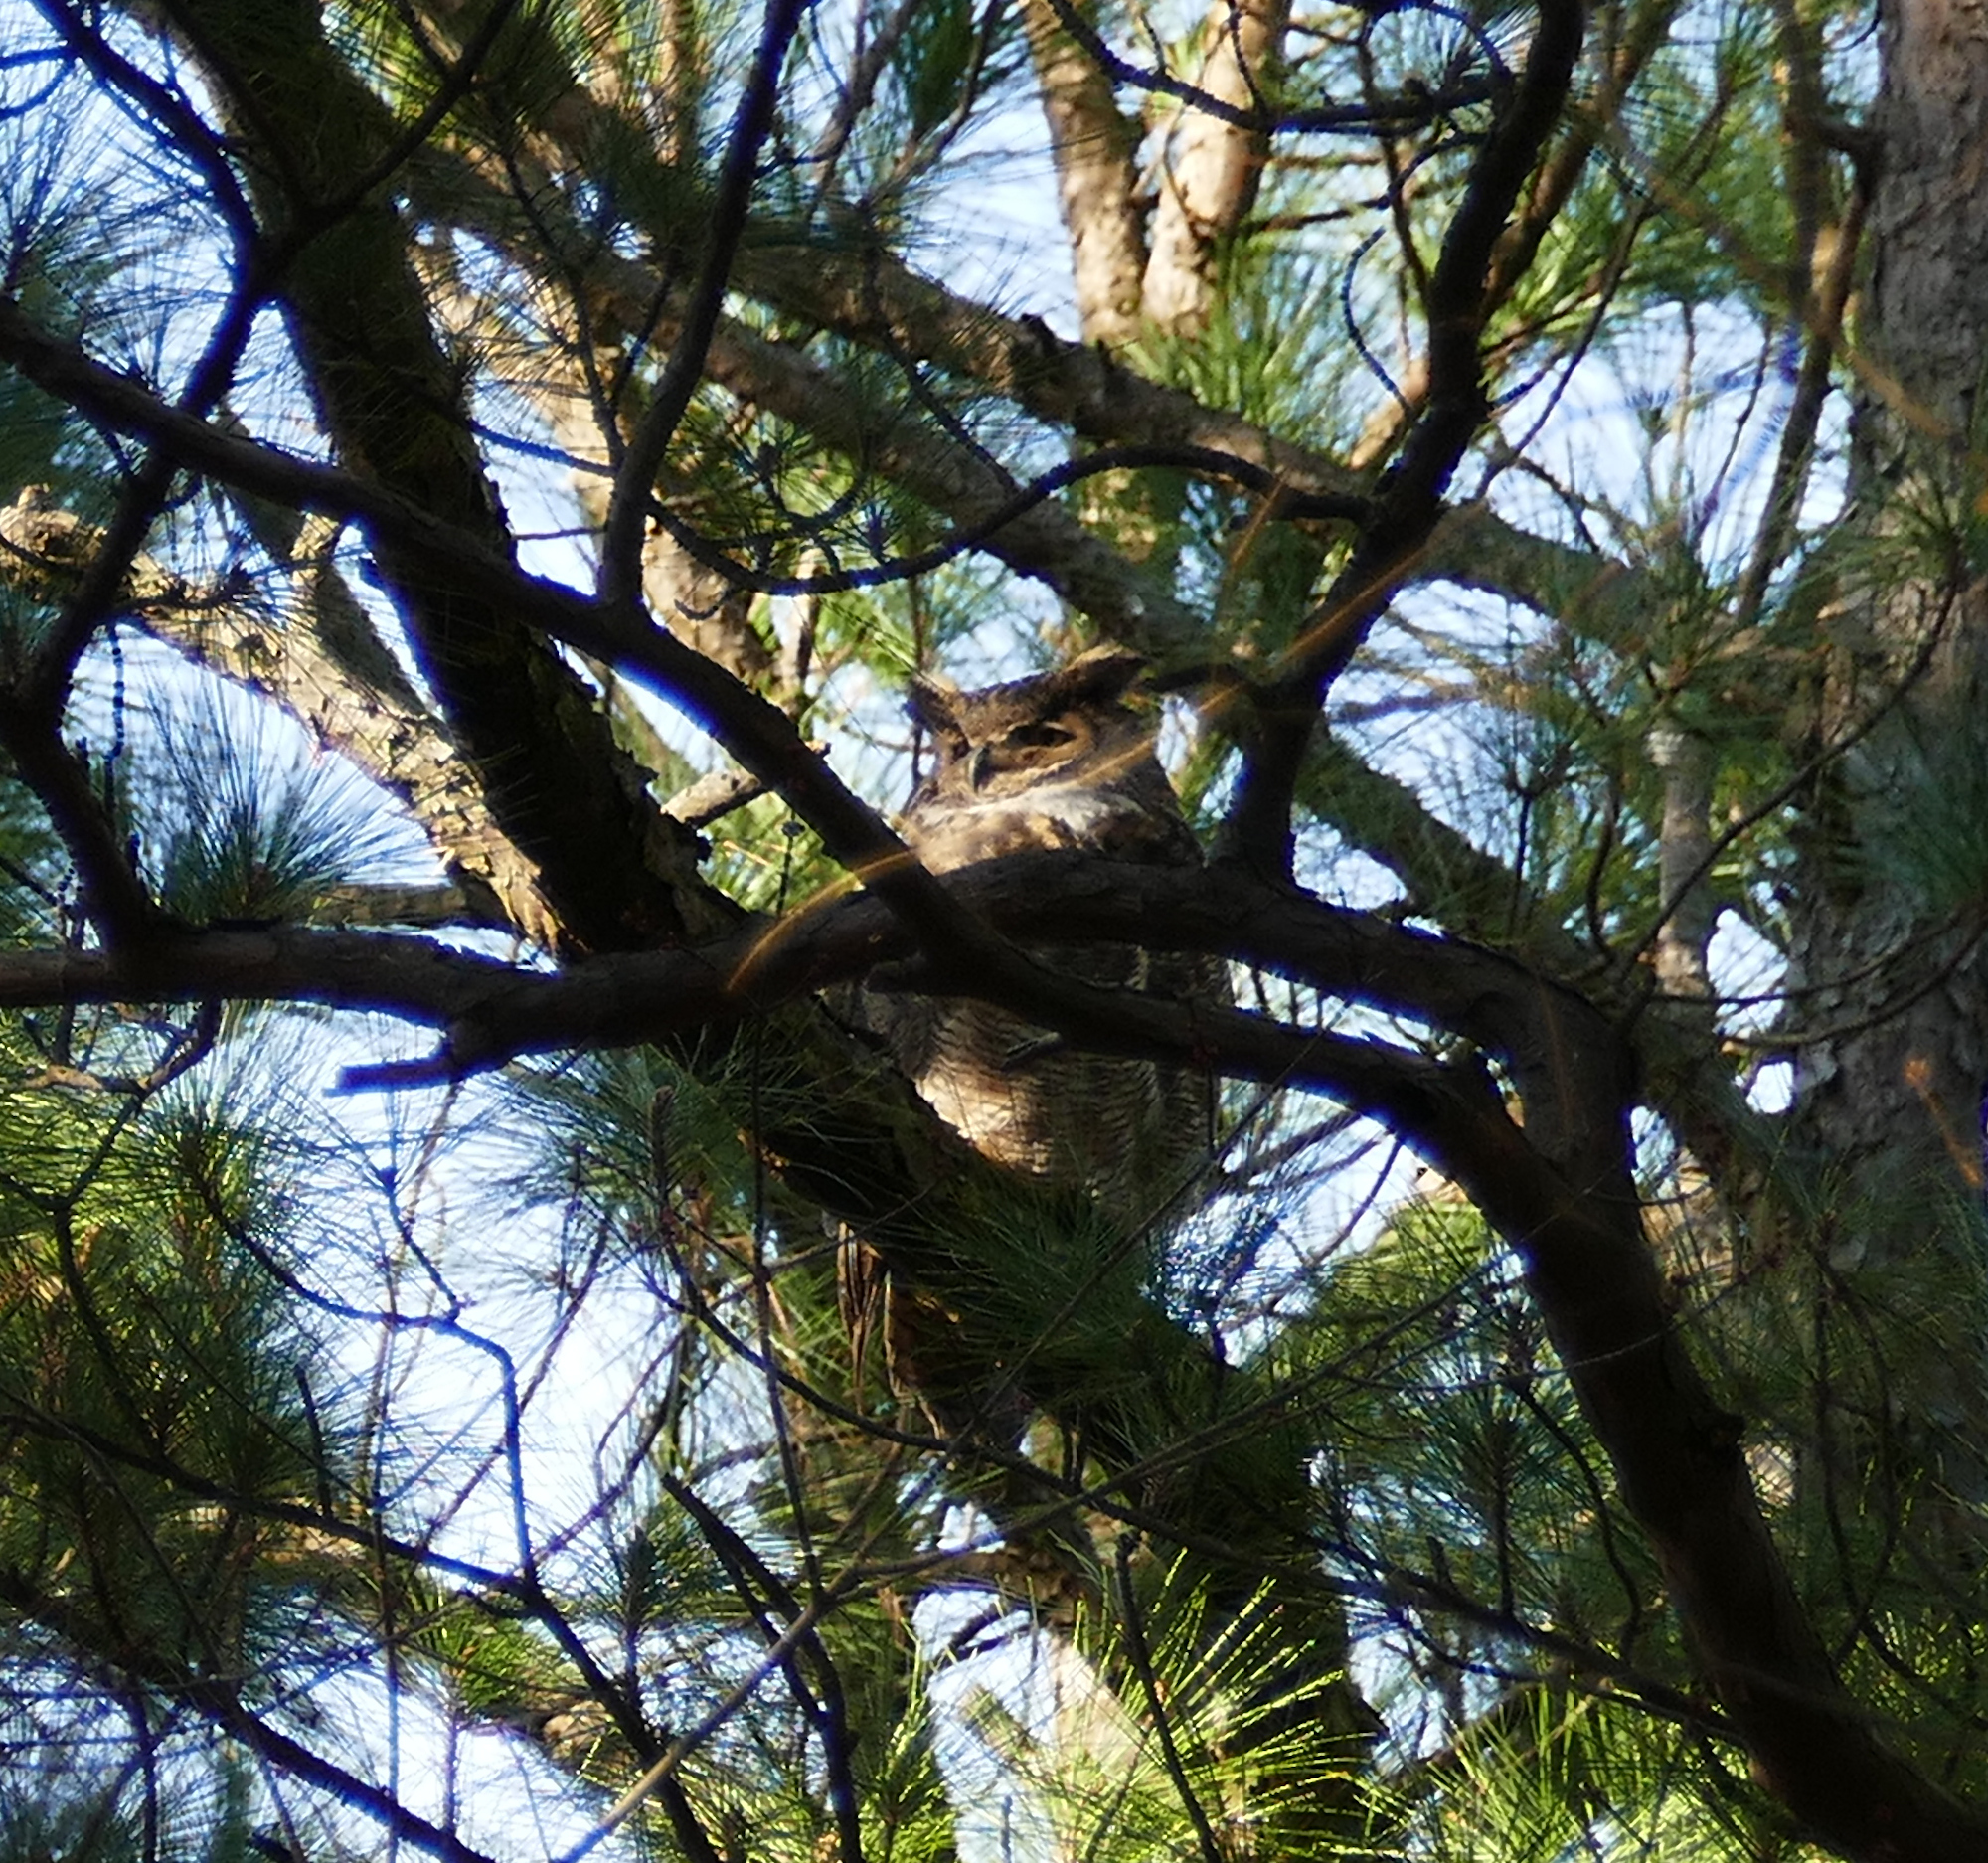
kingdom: Animalia
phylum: Chordata
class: Aves
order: Strigiformes
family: Strigidae
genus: Bubo
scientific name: Bubo virginianus
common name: Great horned owl
